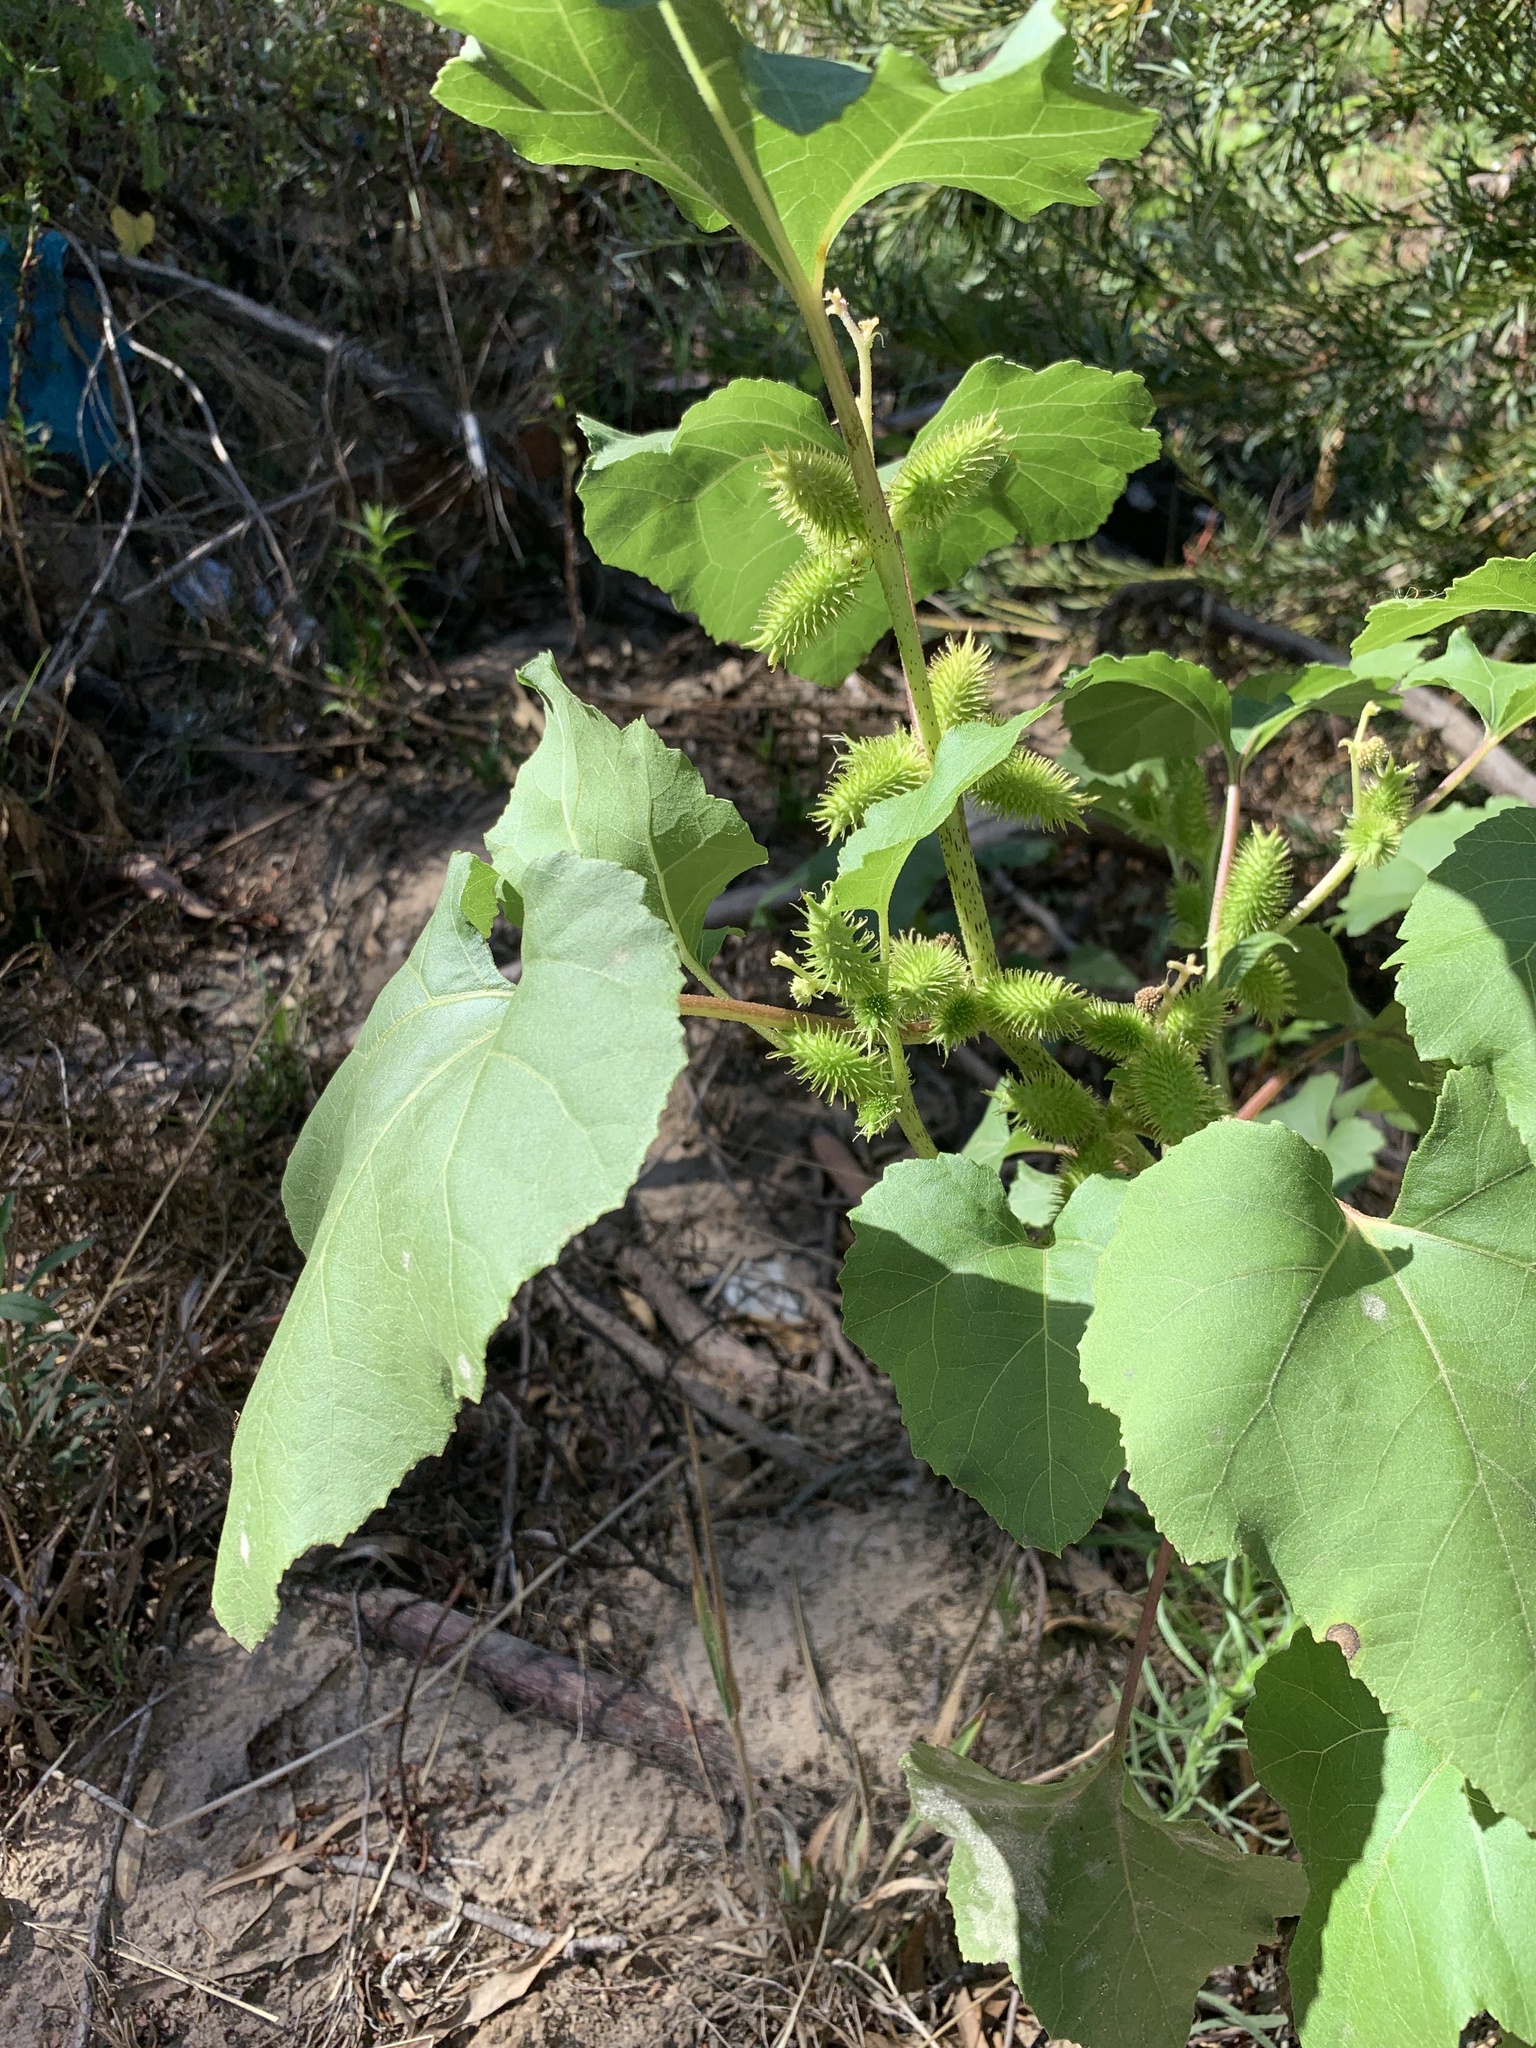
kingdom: Plantae
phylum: Tracheophyta
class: Magnoliopsida
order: Asterales
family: Asteraceae
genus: Xanthium
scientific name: Xanthium strumarium
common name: Rough cocklebur
